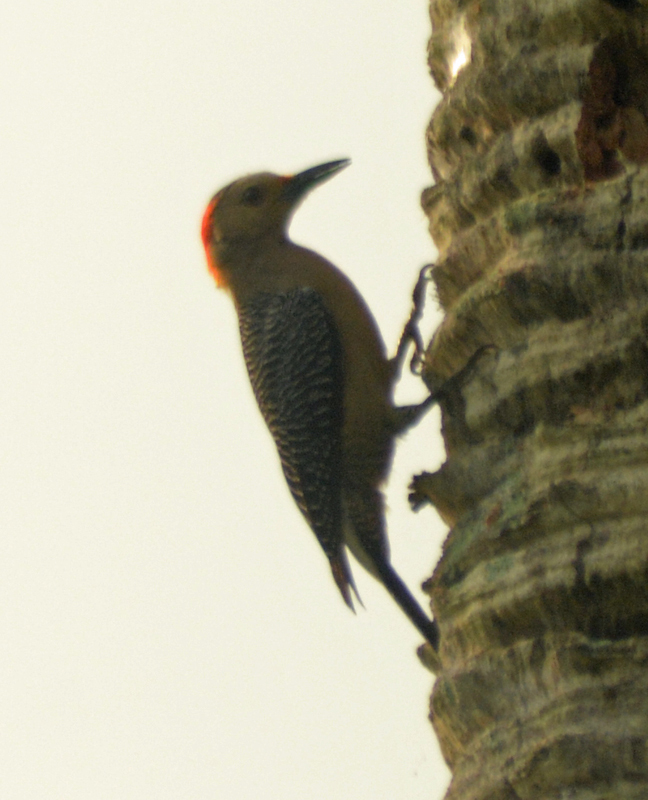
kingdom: Animalia
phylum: Chordata
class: Aves
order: Piciformes
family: Picidae
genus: Melanerpes
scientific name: Melanerpes aurifrons
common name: Golden-fronted woodpecker
